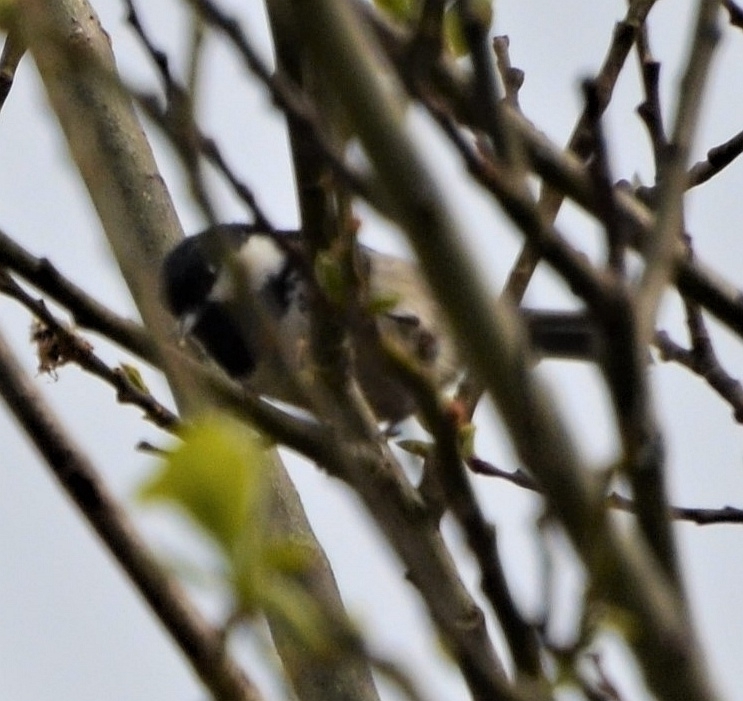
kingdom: Animalia
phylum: Chordata
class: Aves
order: Passeriformes
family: Paridae
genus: Periparus
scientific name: Periparus ater
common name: Coal tit
